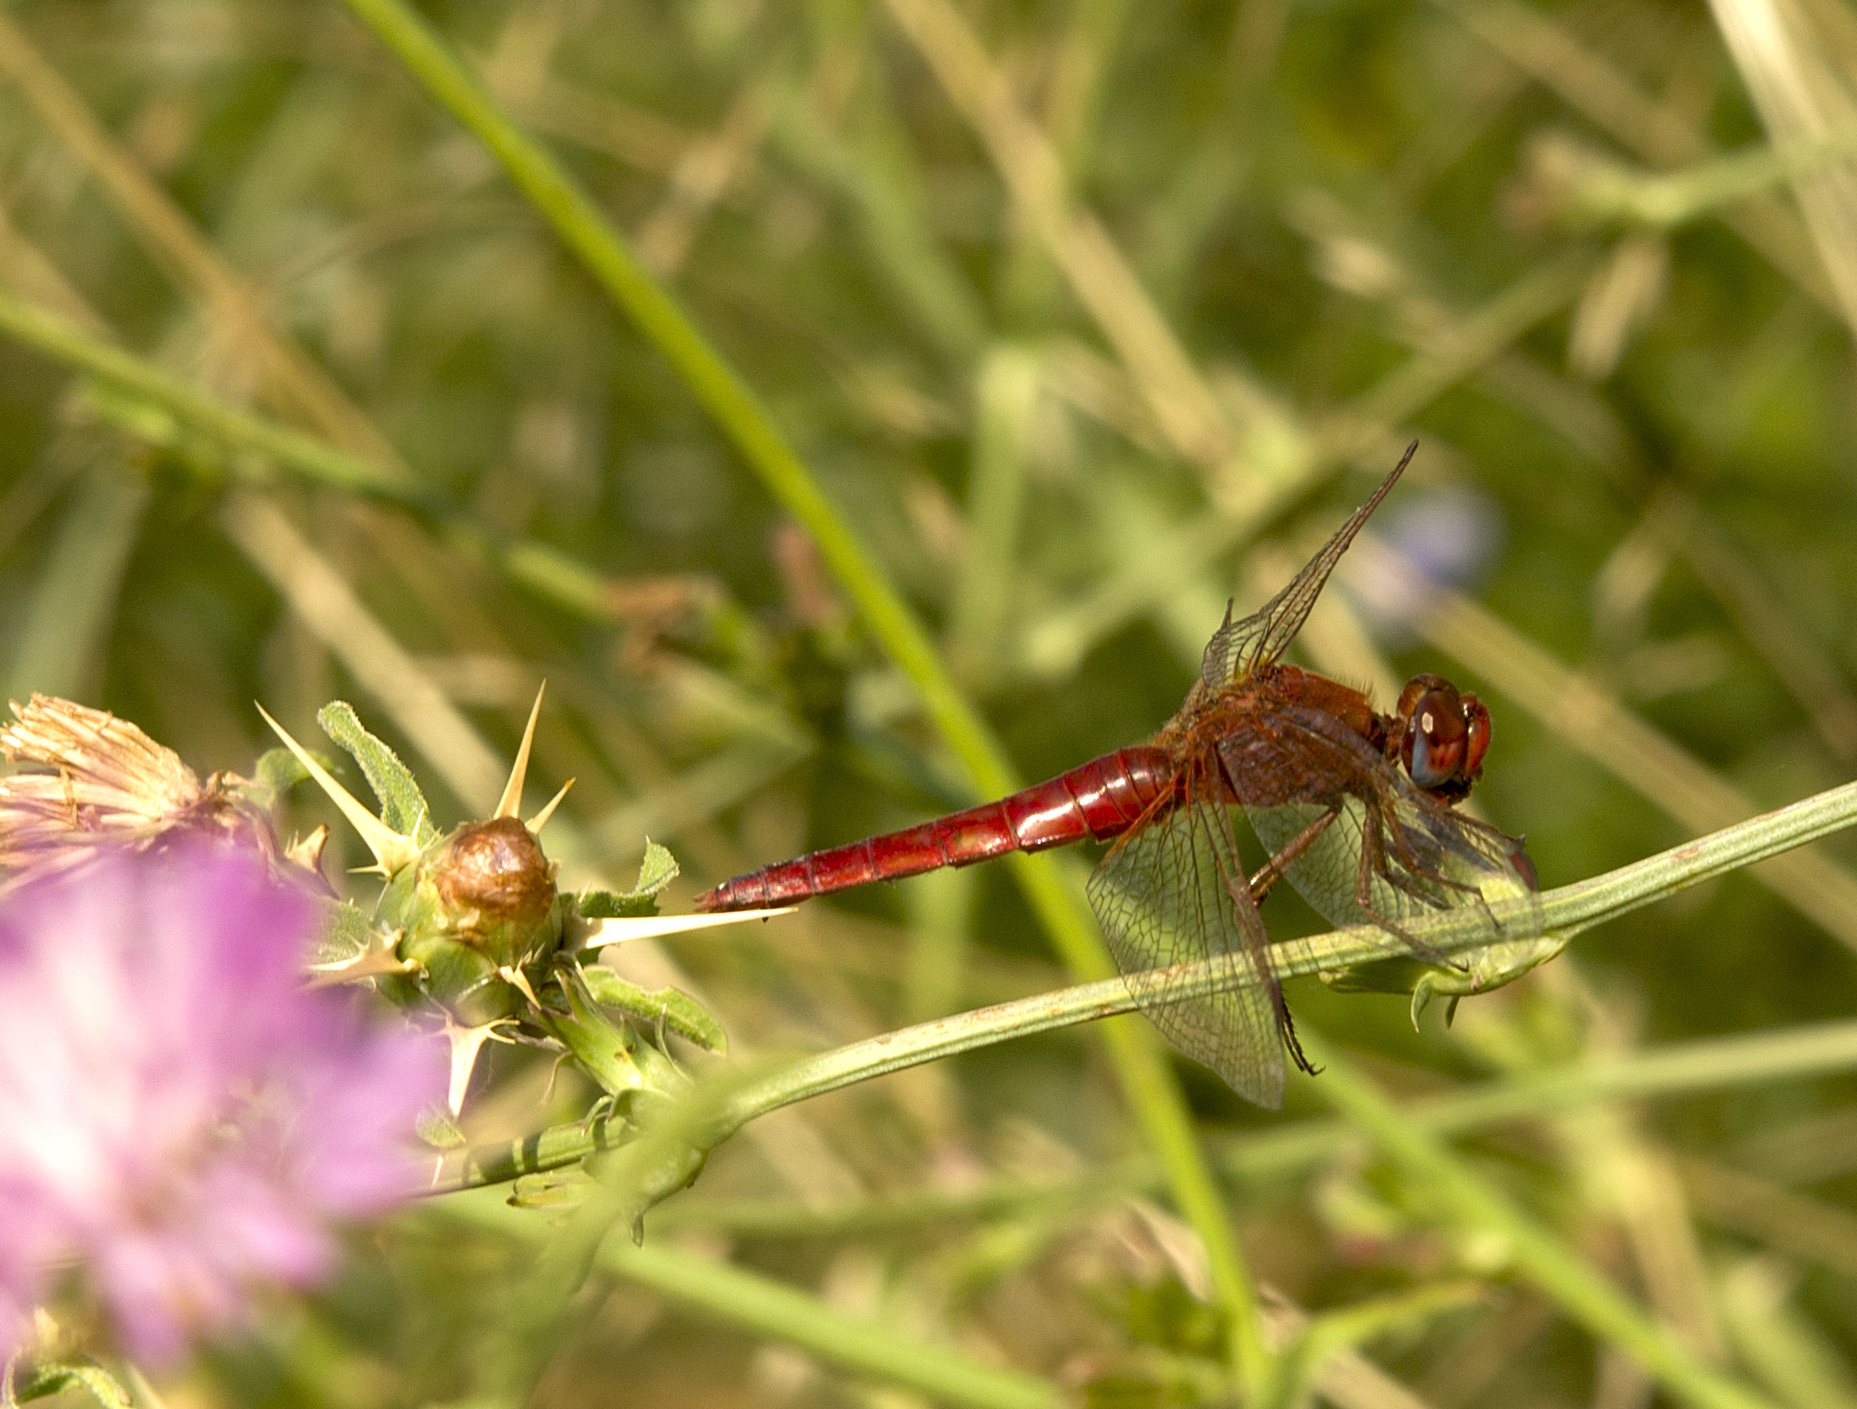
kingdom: Animalia
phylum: Arthropoda
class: Insecta
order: Odonata
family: Libellulidae
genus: Crocothemis
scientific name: Crocothemis erythraea
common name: Scarlet dragonfly
